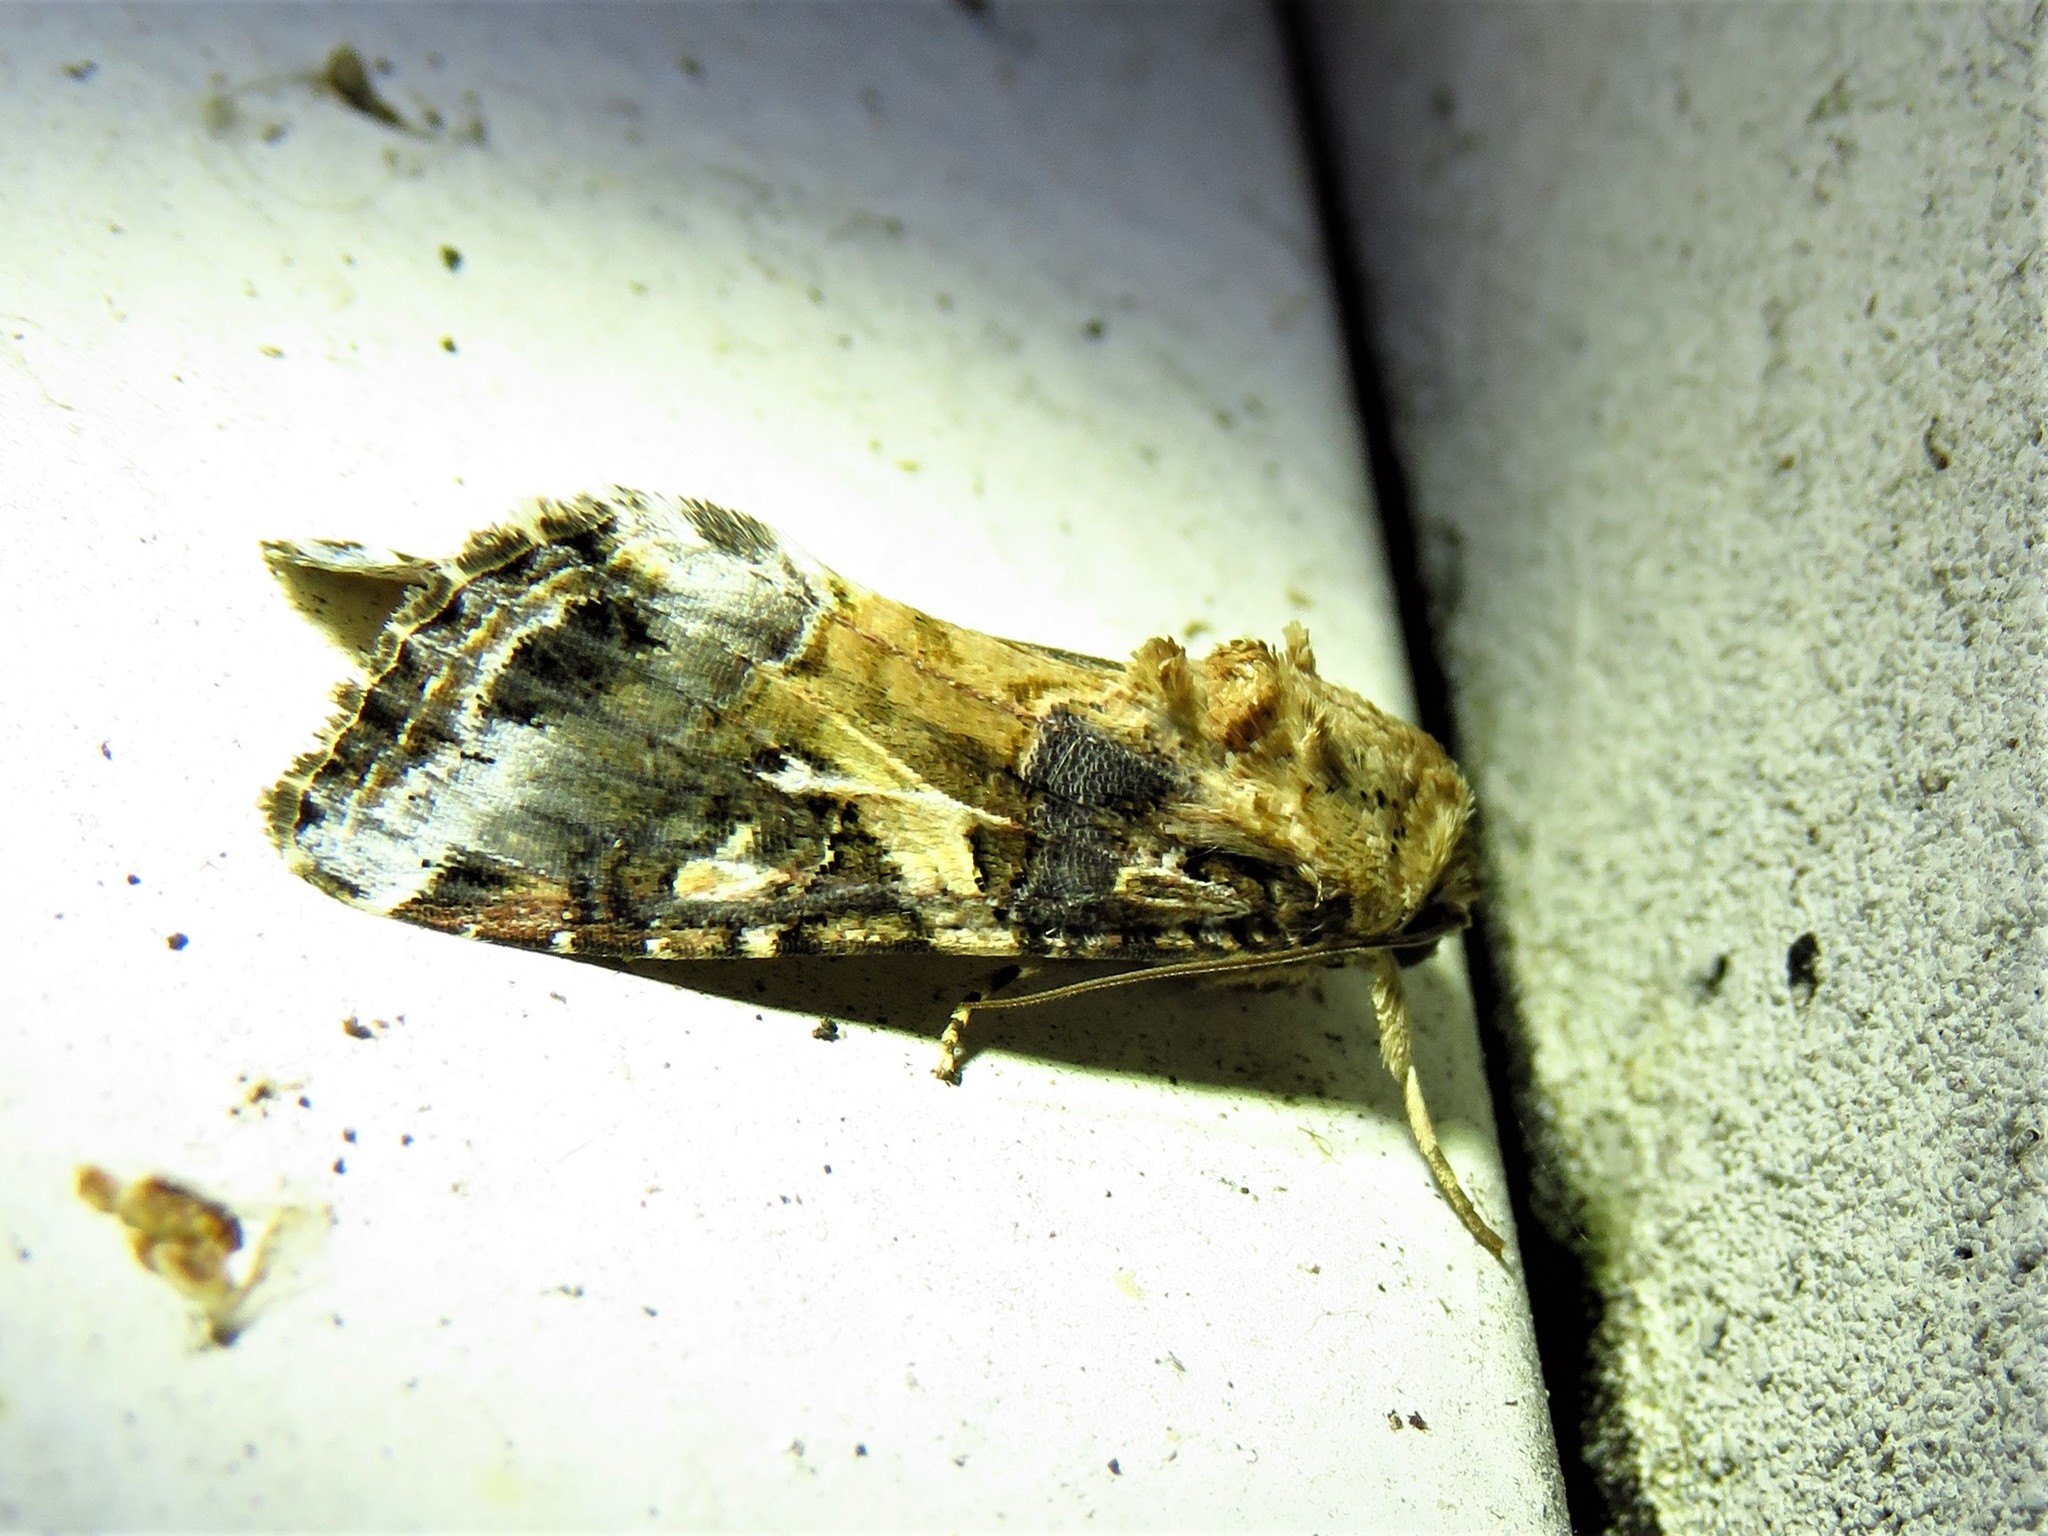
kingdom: Animalia
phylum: Arthropoda
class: Insecta
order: Lepidoptera
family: Noctuidae
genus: Spodoptera
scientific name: Spodoptera ornithogalli
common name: Yellow-striped armyworm
